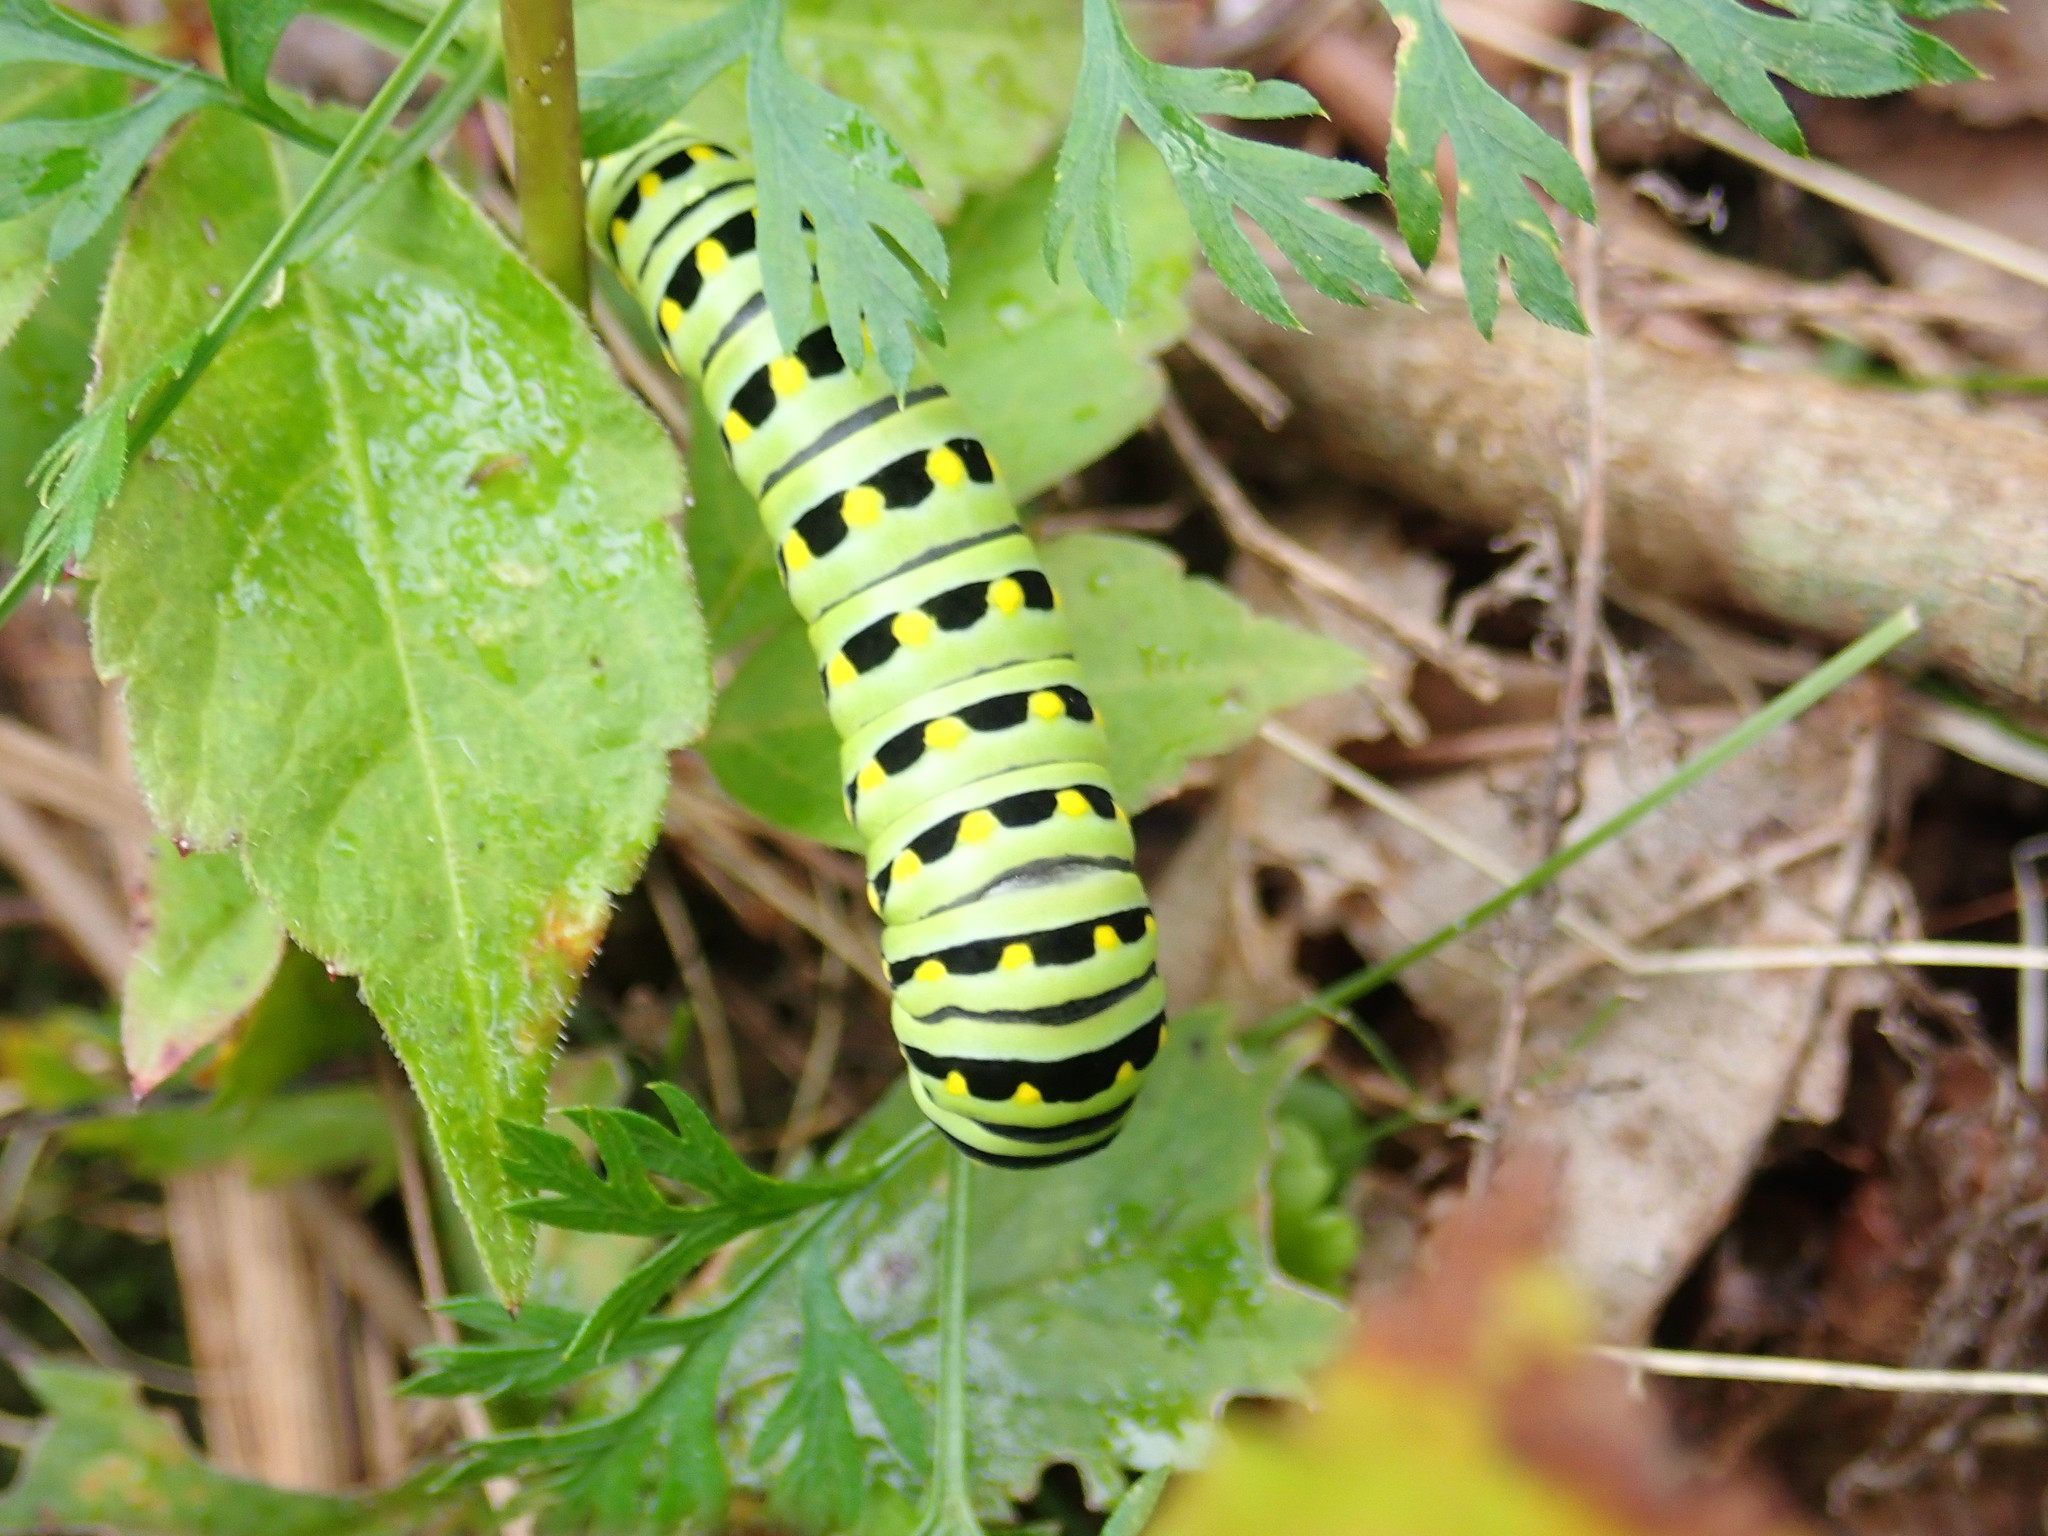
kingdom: Animalia
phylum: Arthropoda
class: Insecta
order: Lepidoptera
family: Papilionidae
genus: Papilio
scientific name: Papilio polyxenes
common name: Black swallowtail
